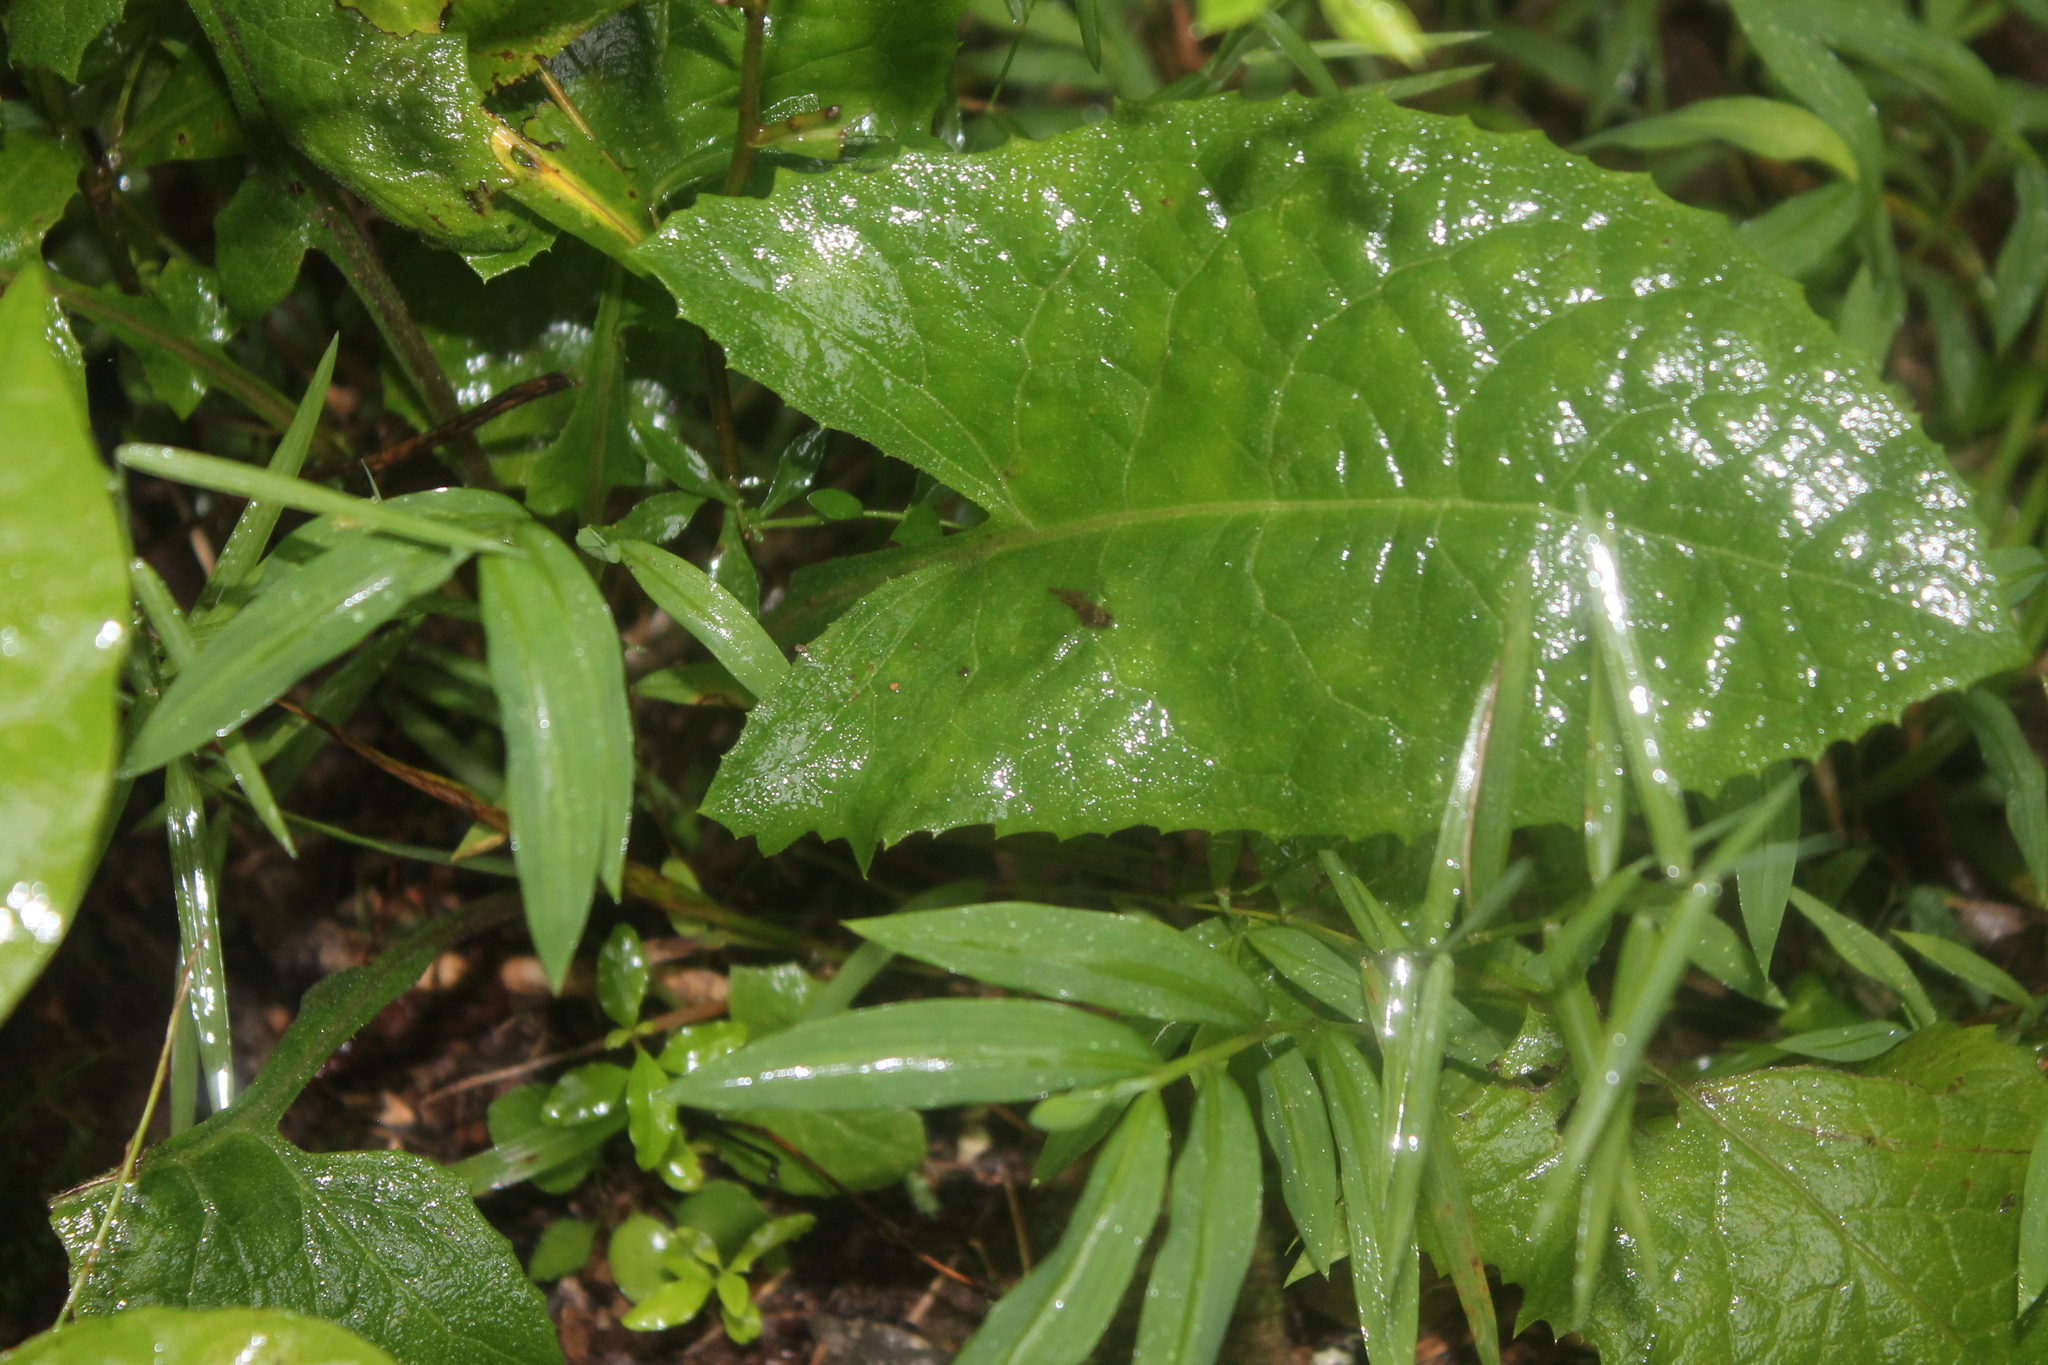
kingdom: Plantae
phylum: Tracheophyta
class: Magnoliopsida
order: Asterales
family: Asteraceae
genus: Nabalus
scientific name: Nabalus crepidineus
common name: Nodding rattlesnakeroot
